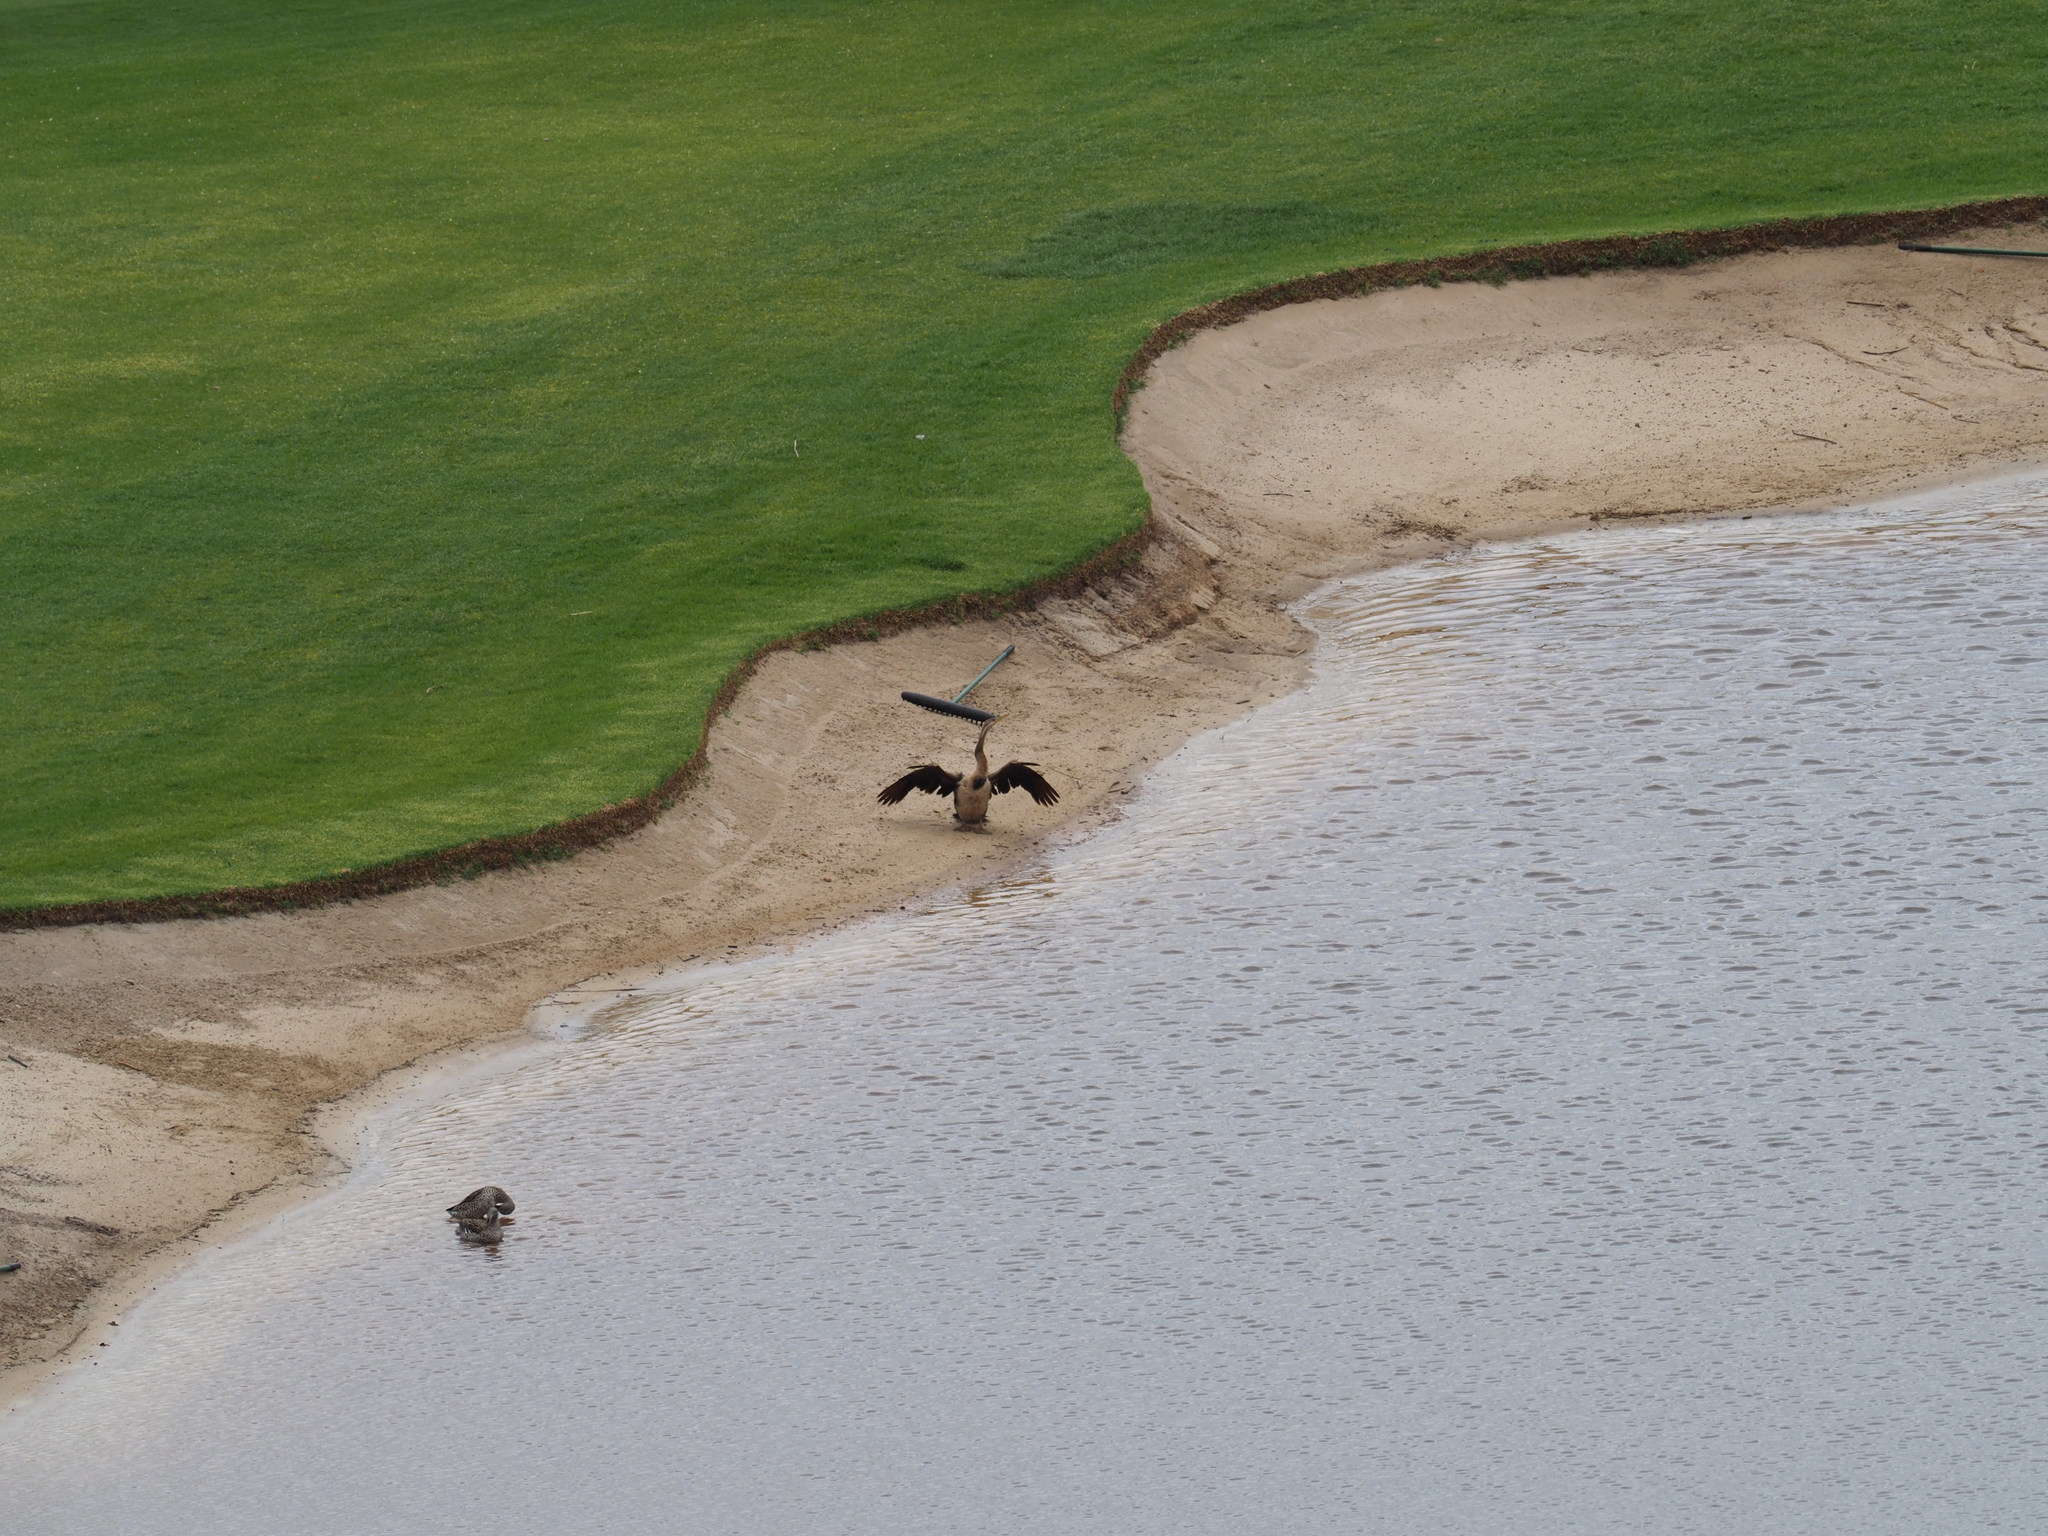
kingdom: Animalia
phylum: Chordata
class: Aves
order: Suliformes
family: Anhingidae
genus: Anhinga
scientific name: Anhinga rufa
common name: African darter
